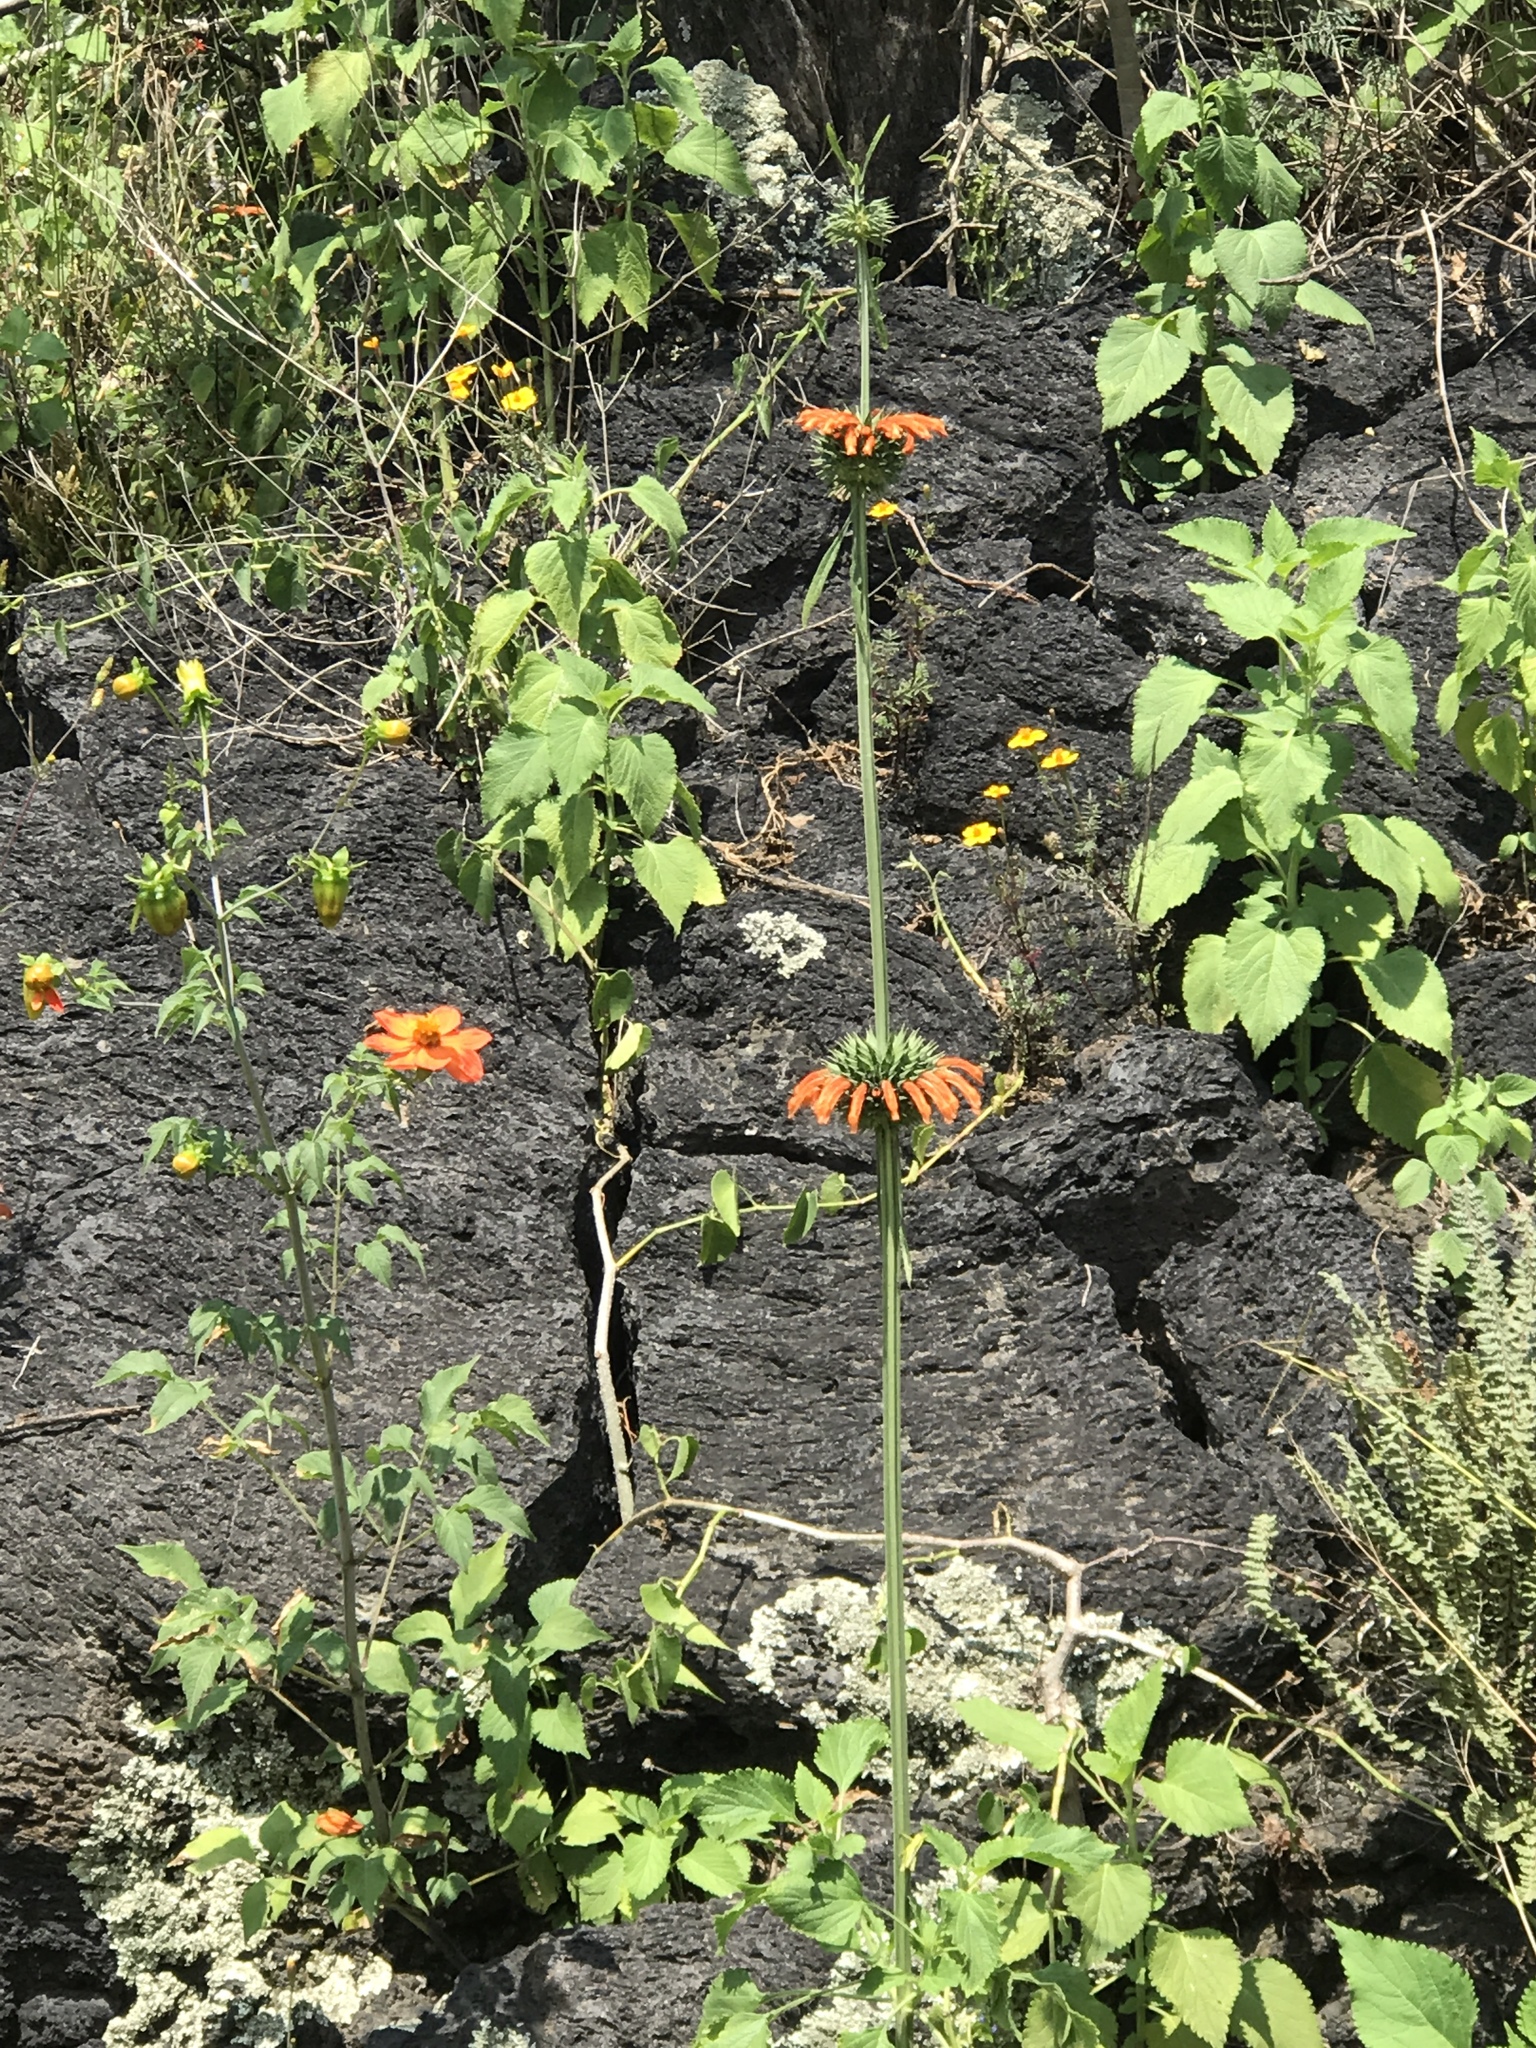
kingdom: Plantae
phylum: Tracheophyta
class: Magnoliopsida
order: Lamiales
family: Lamiaceae
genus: Leonotis
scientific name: Leonotis nepetifolia
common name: Christmas candlestick
